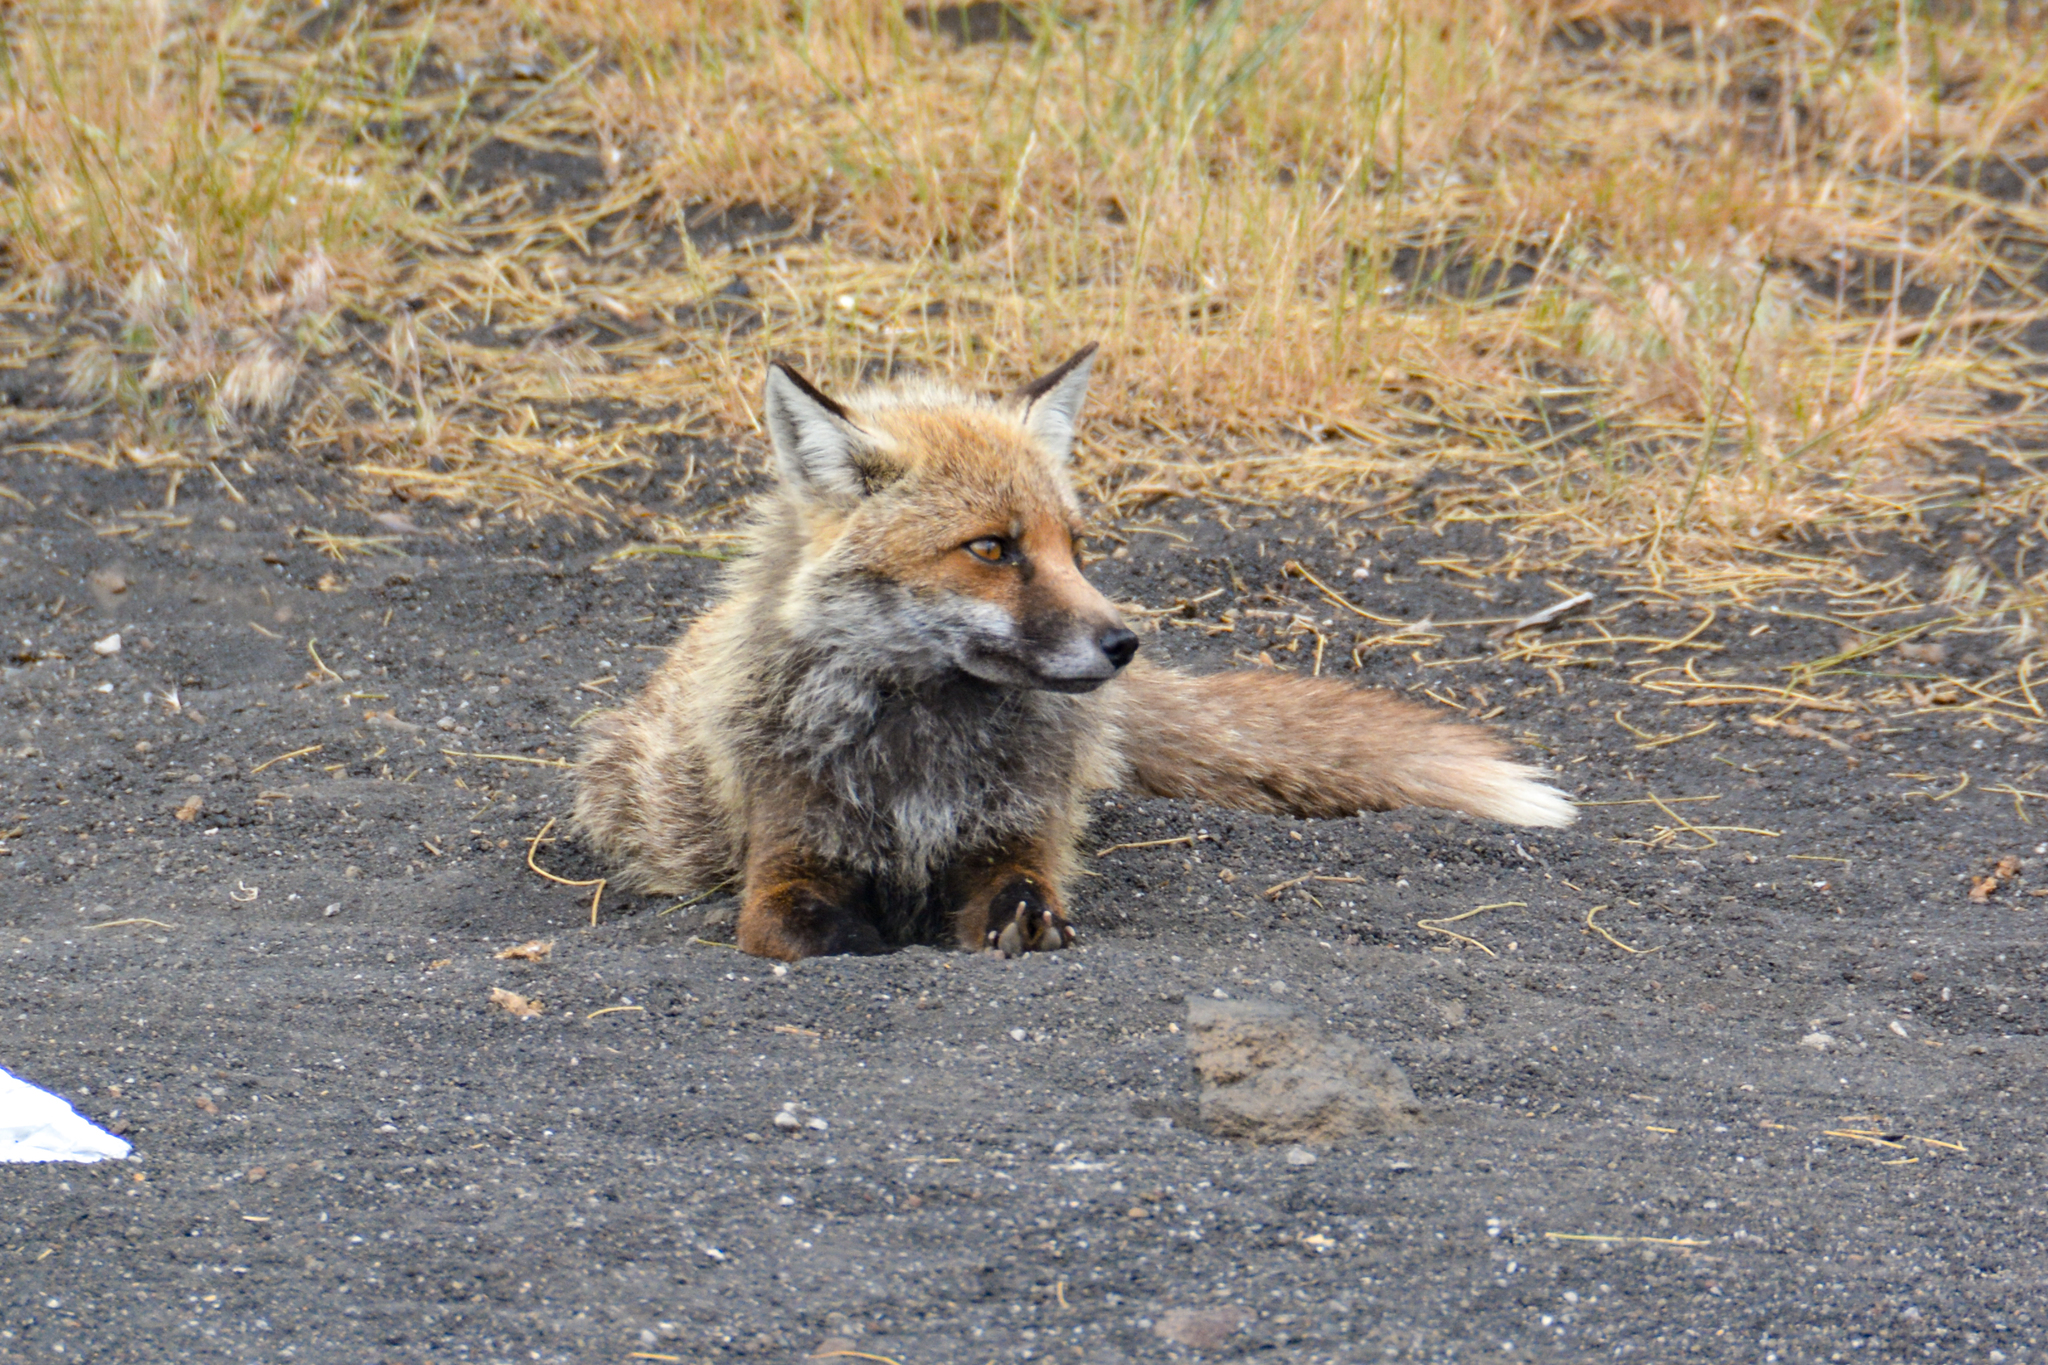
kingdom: Animalia
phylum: Chordata
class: Mammalia
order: Carnivora
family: Canidae
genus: Vulpes
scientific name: Vulpes vulpes
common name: Red fox
